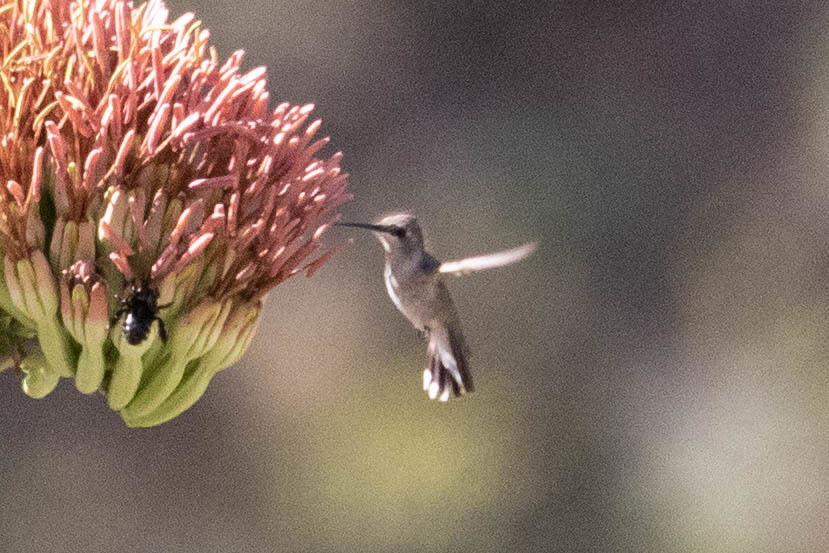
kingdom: Animalia
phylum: Chordata
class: Aves
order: Apodiformes
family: Trochilidae
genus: Calypte
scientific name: Calypte costae
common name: Costa's hummingbird
